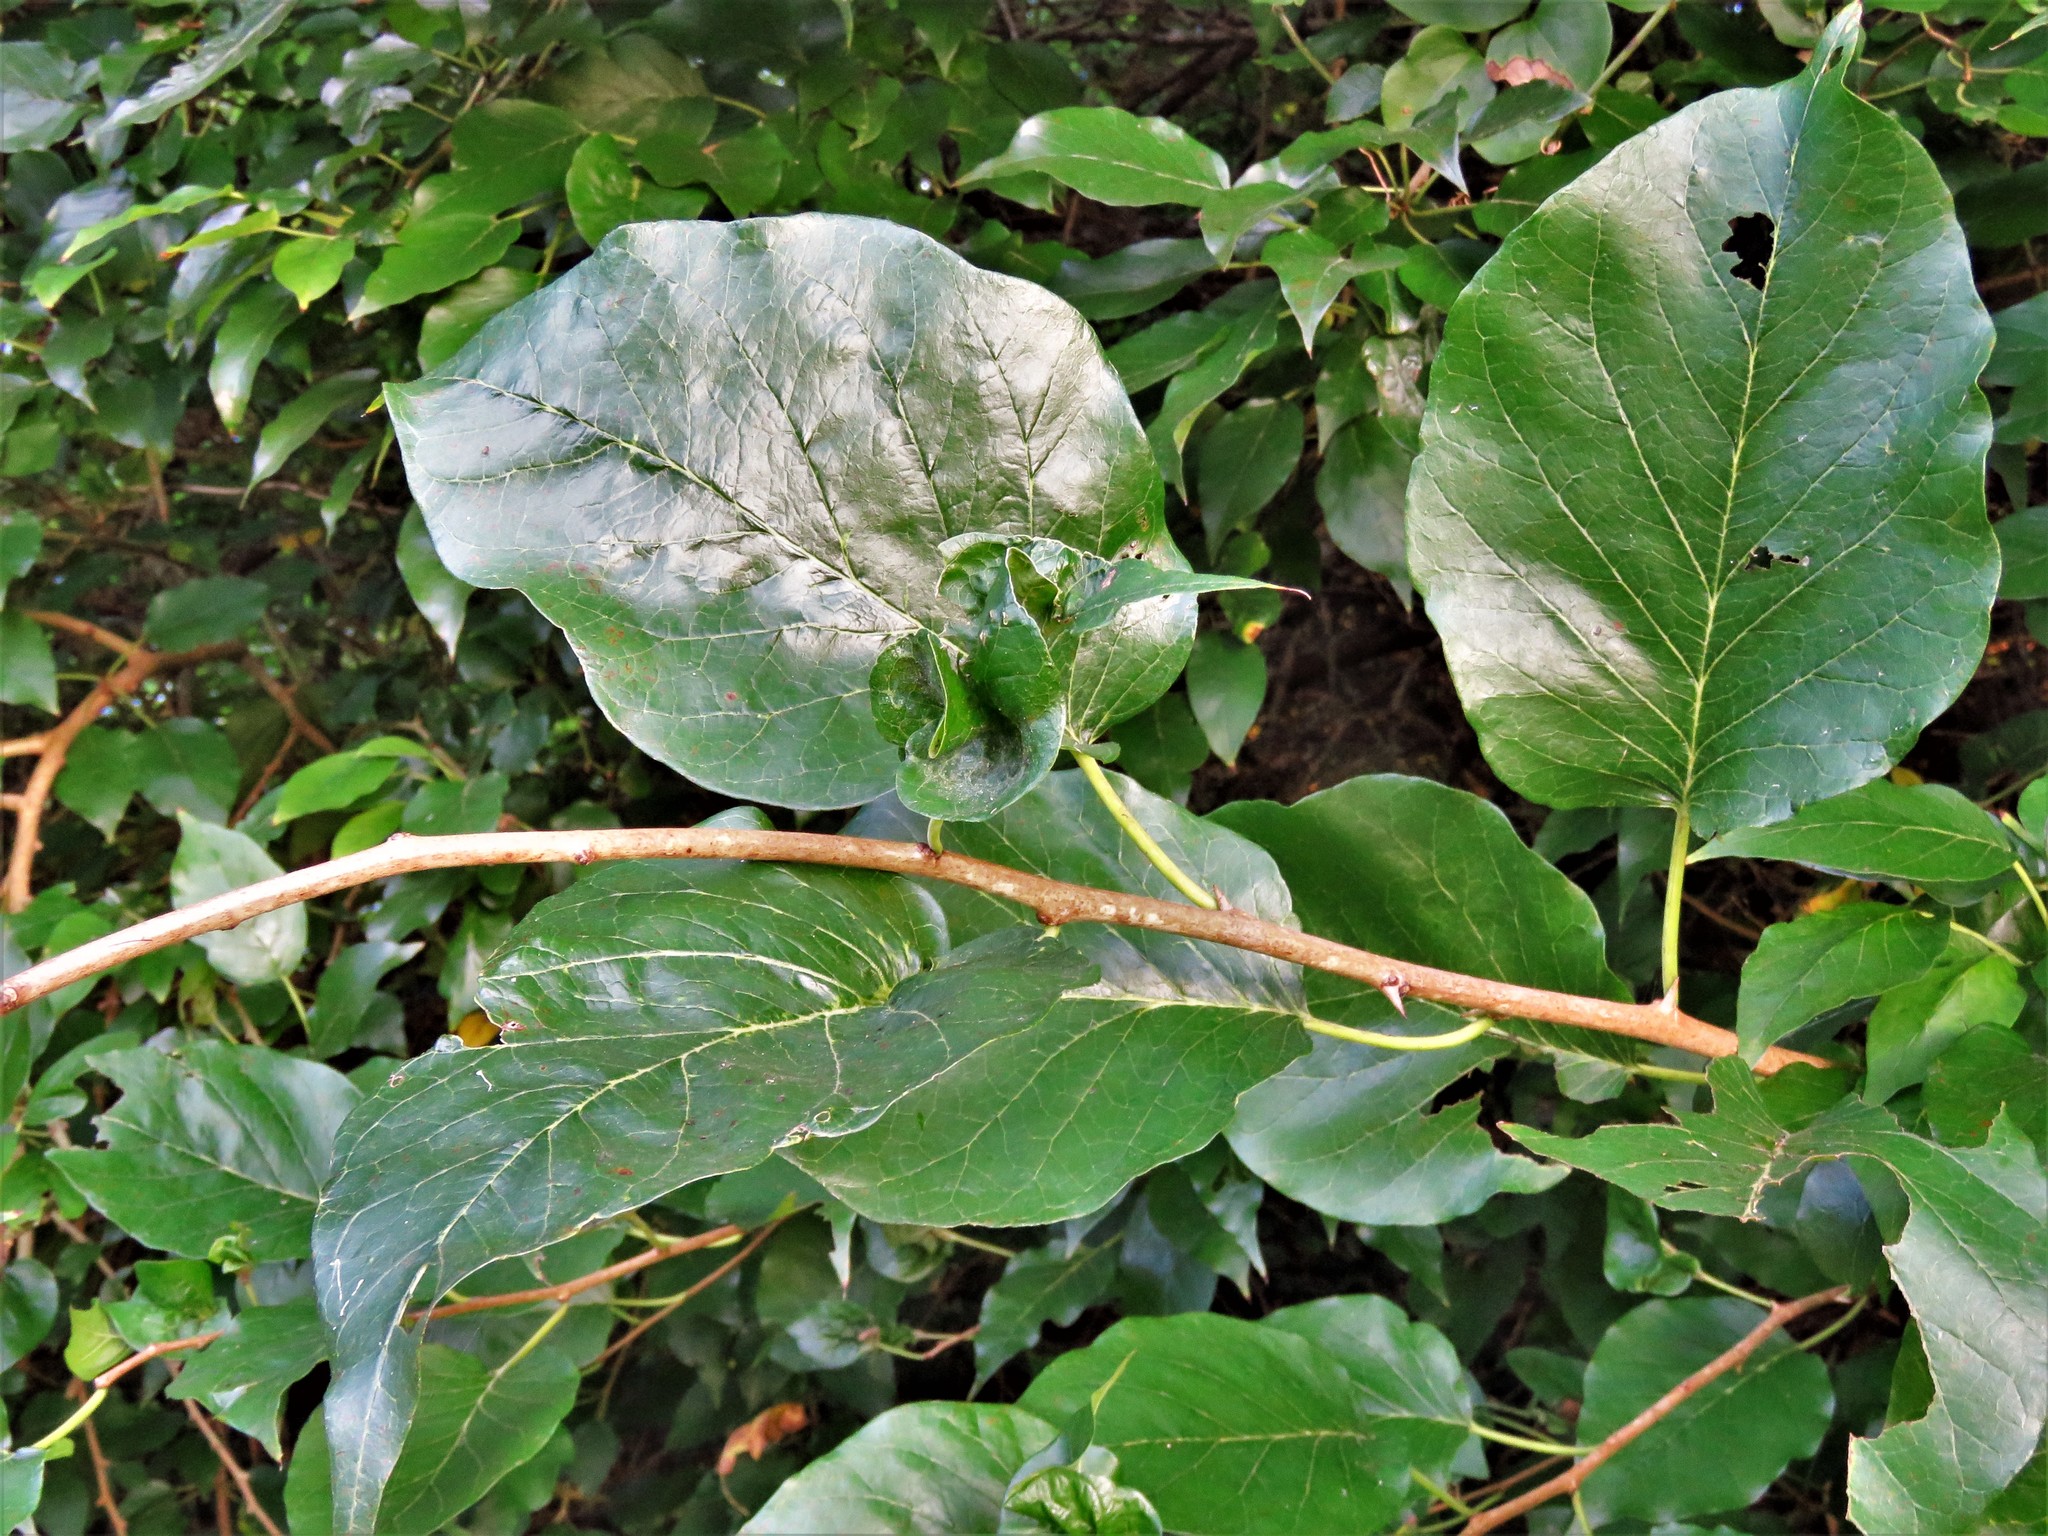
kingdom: Plantae
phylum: Tracheophyta
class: Magnoliopsida
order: Rosales
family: Moraceae
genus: Maclura
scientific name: Maclura pomifera
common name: Osage-orange
